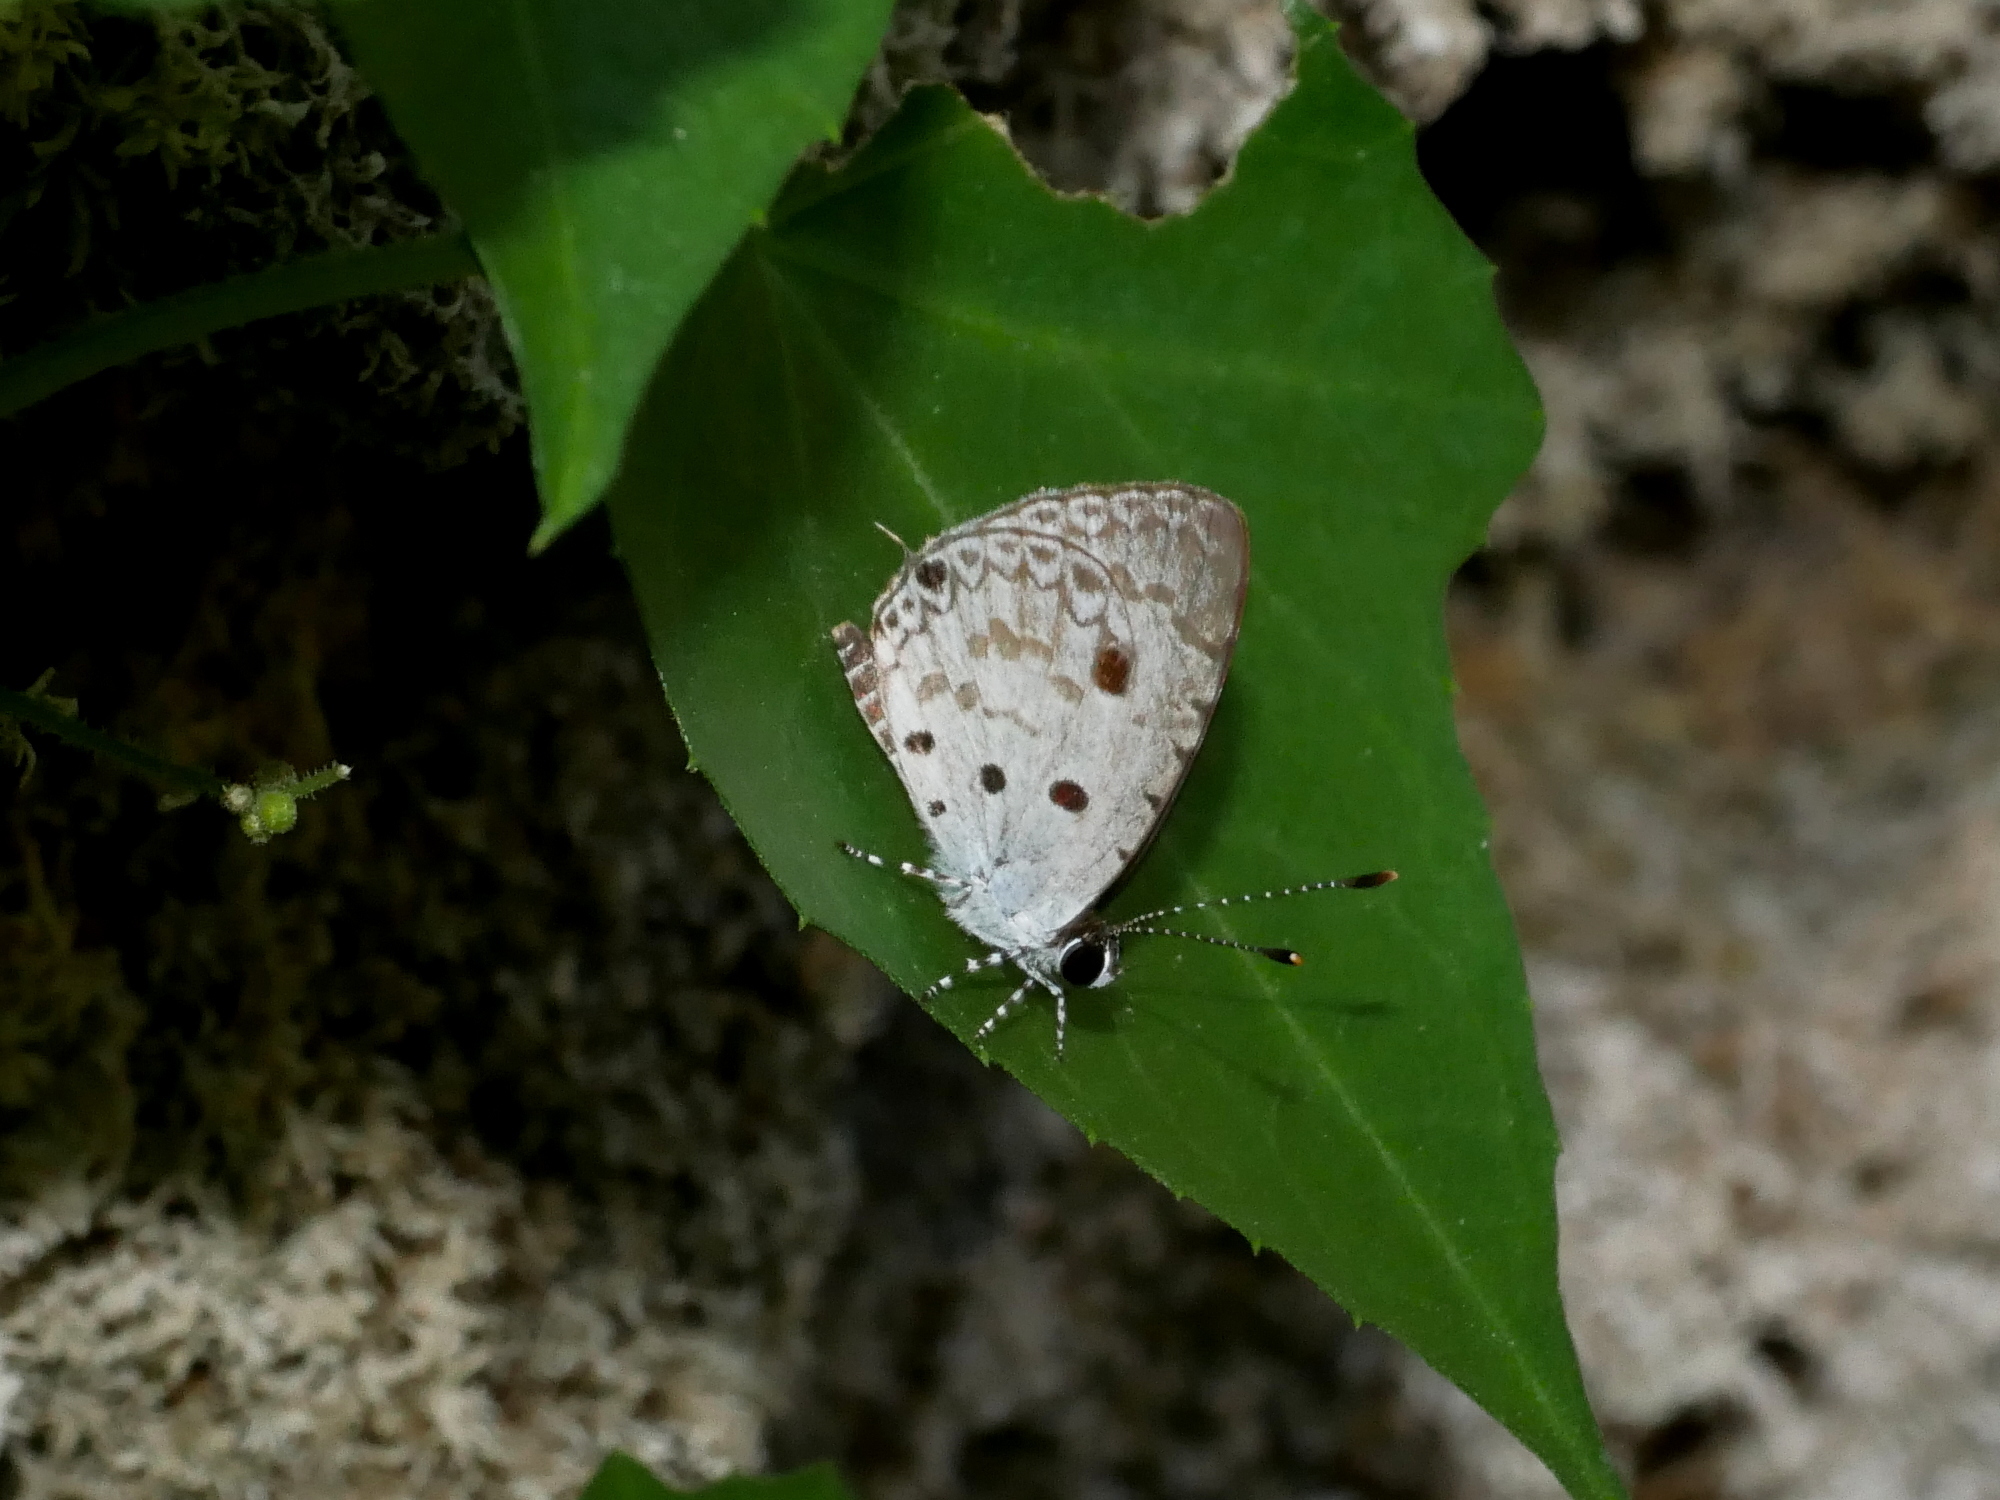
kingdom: Animalia
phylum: Arthropoda
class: Insecta
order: Lepidoptera
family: Lycaenidae
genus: Megisba
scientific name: Megisba malaya
